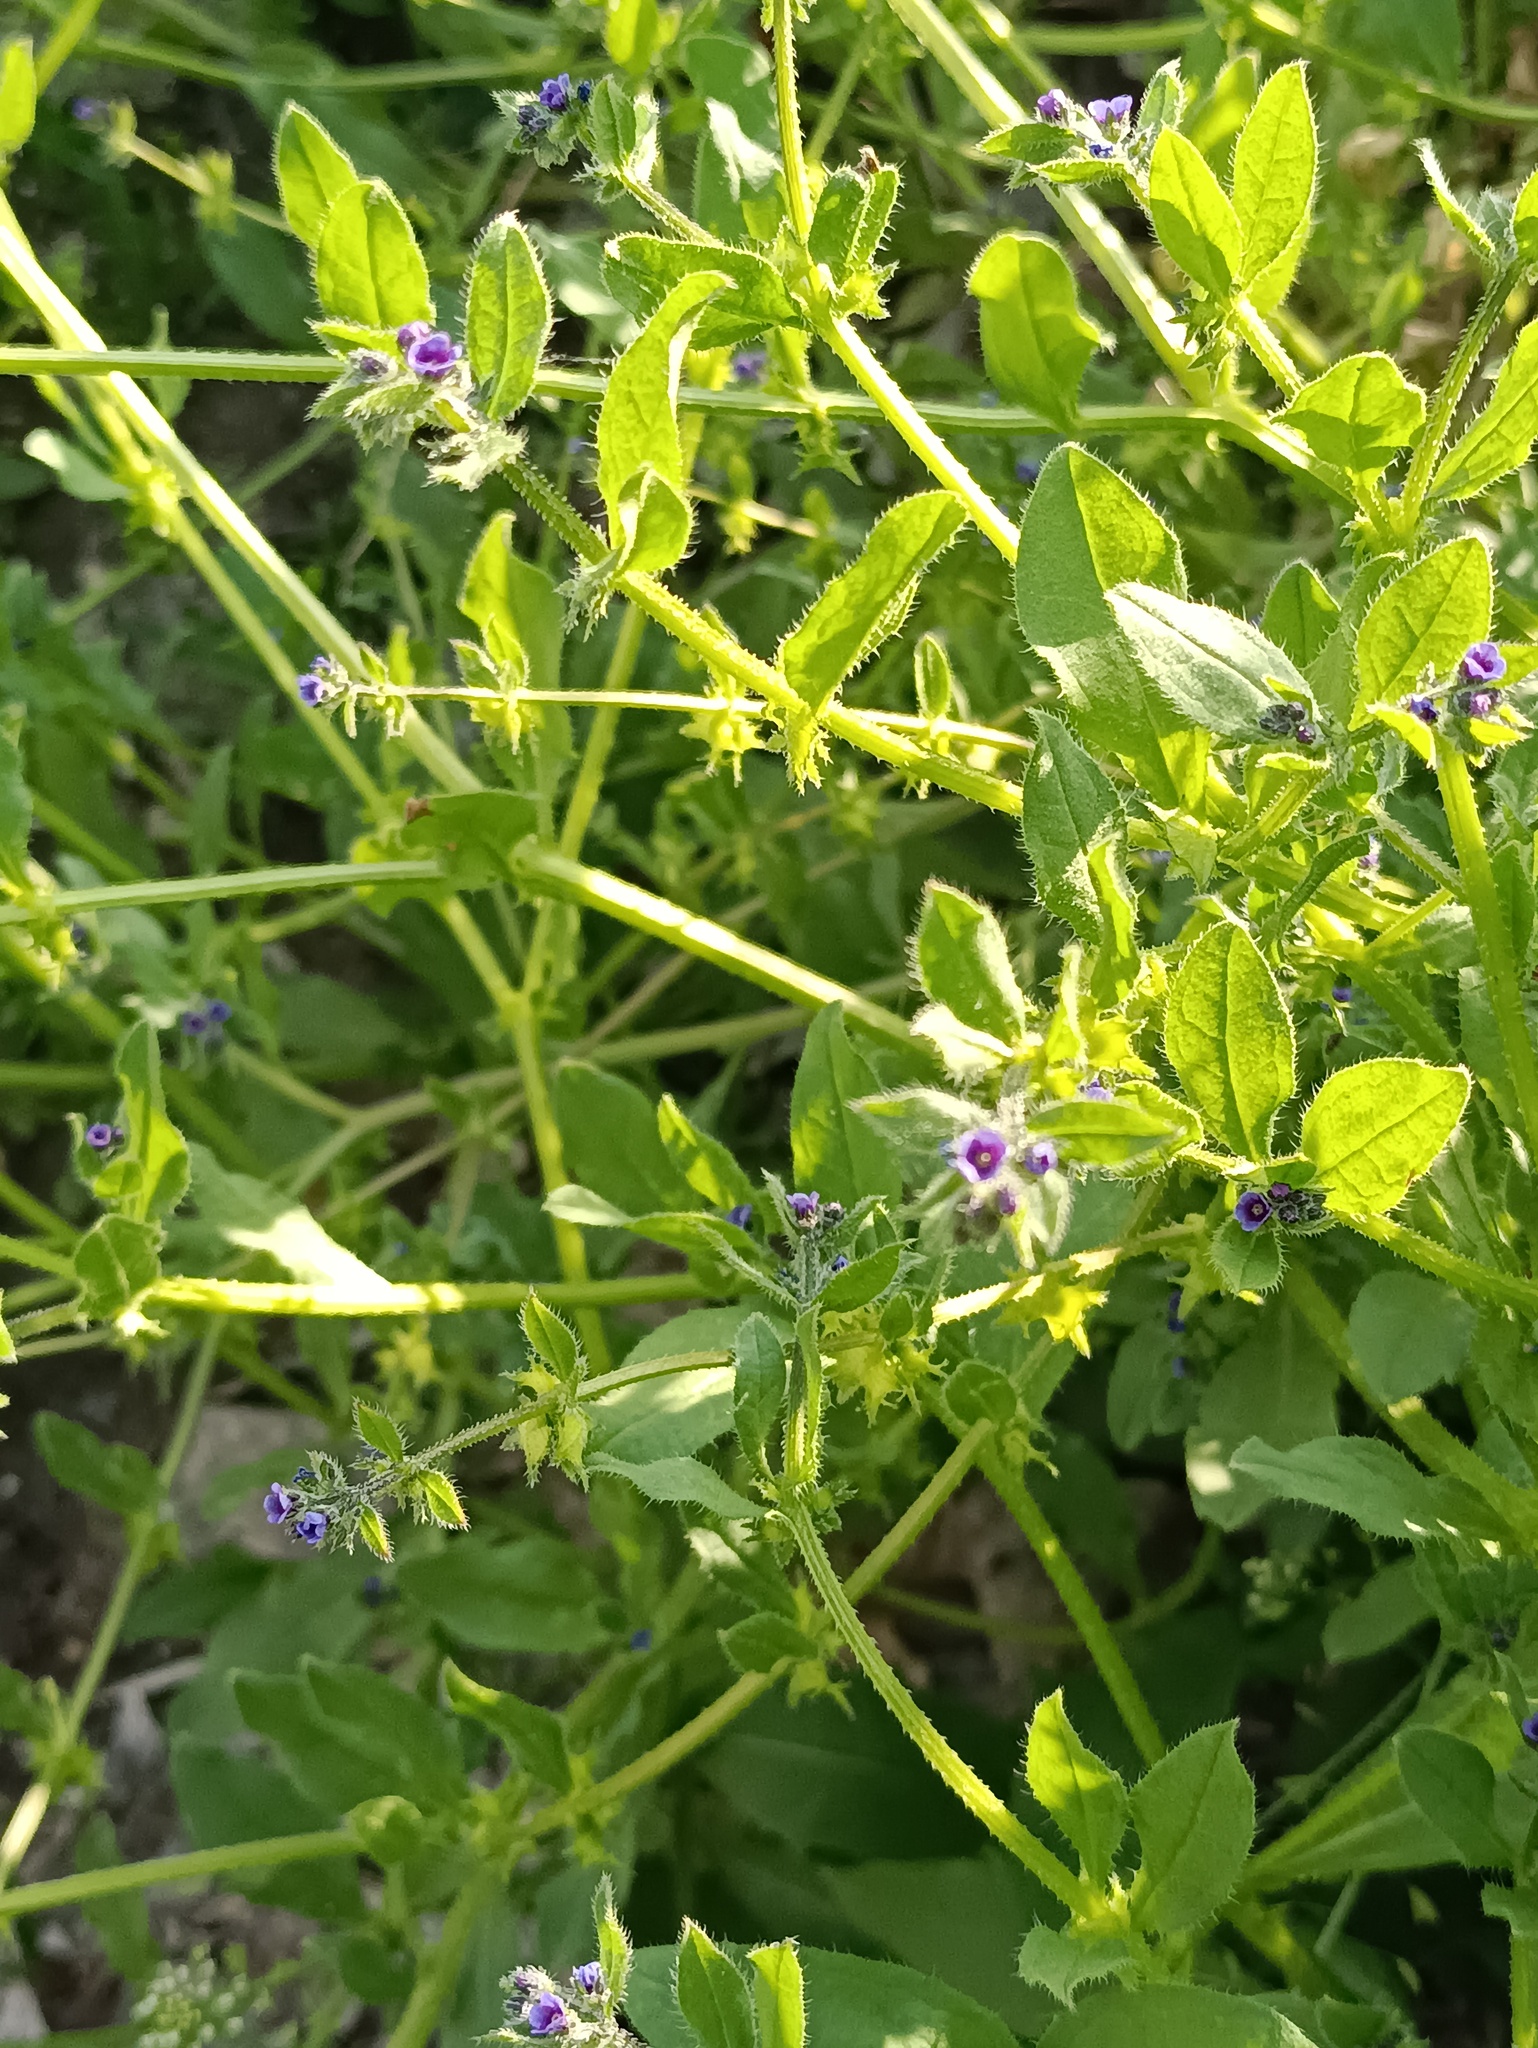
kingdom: Plantae
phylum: Tracheophyta
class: Magnoliopsida
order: Boraginales
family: Boraginaceae
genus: Asperugo
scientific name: Asperugo procumbens
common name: Madwort
